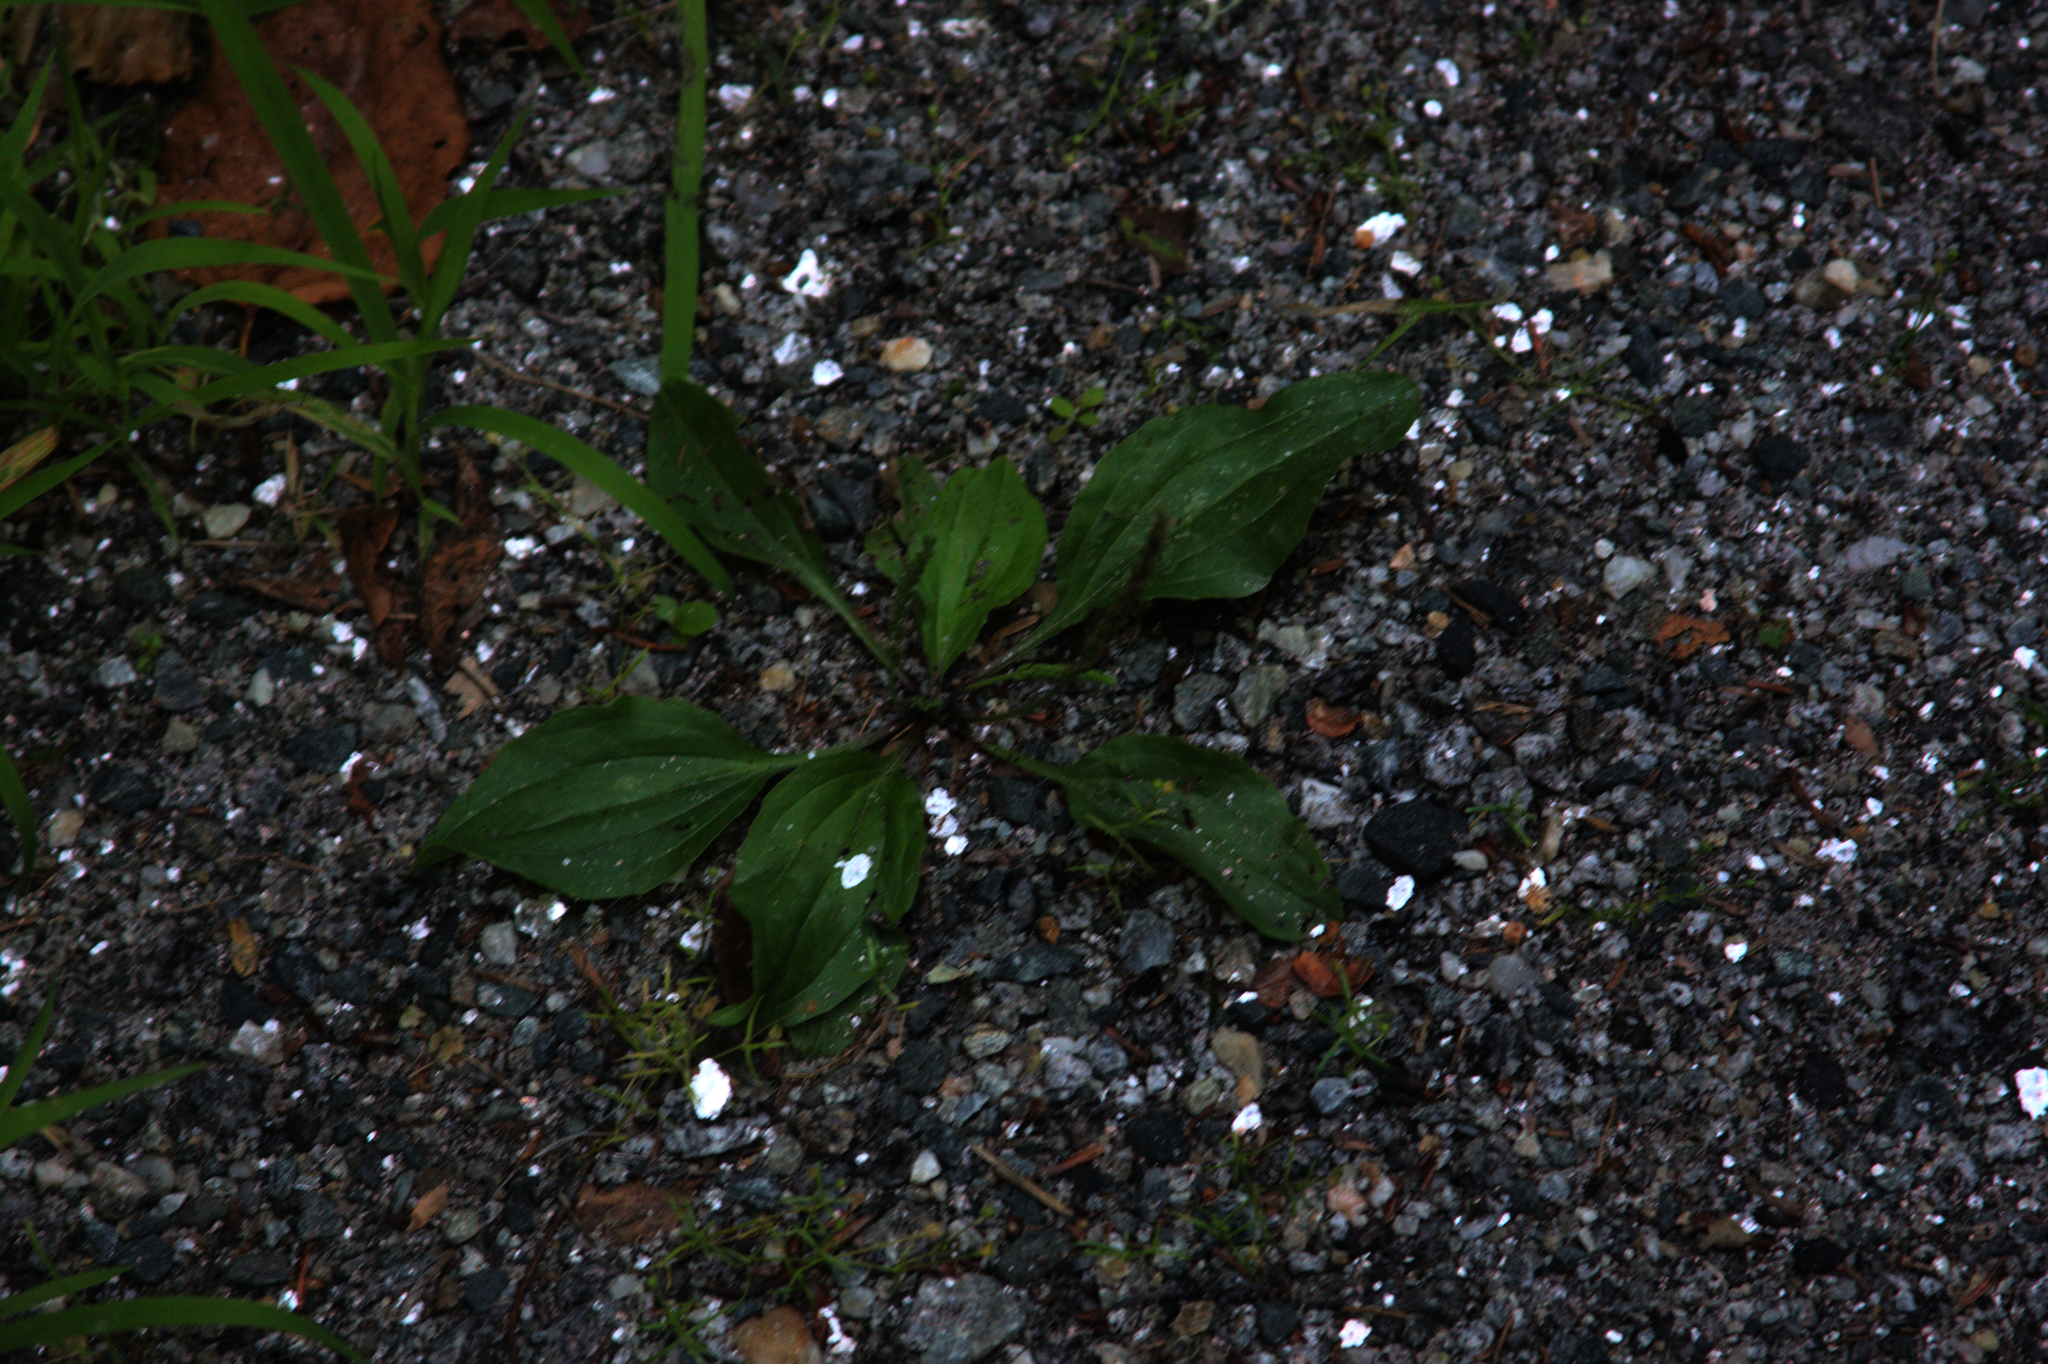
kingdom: Plantae
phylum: Tracheophyta
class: Magnoliopsida
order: Lamiales
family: Plantaginaceae
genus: Plantago
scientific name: Plantago rugelii
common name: American plantain
